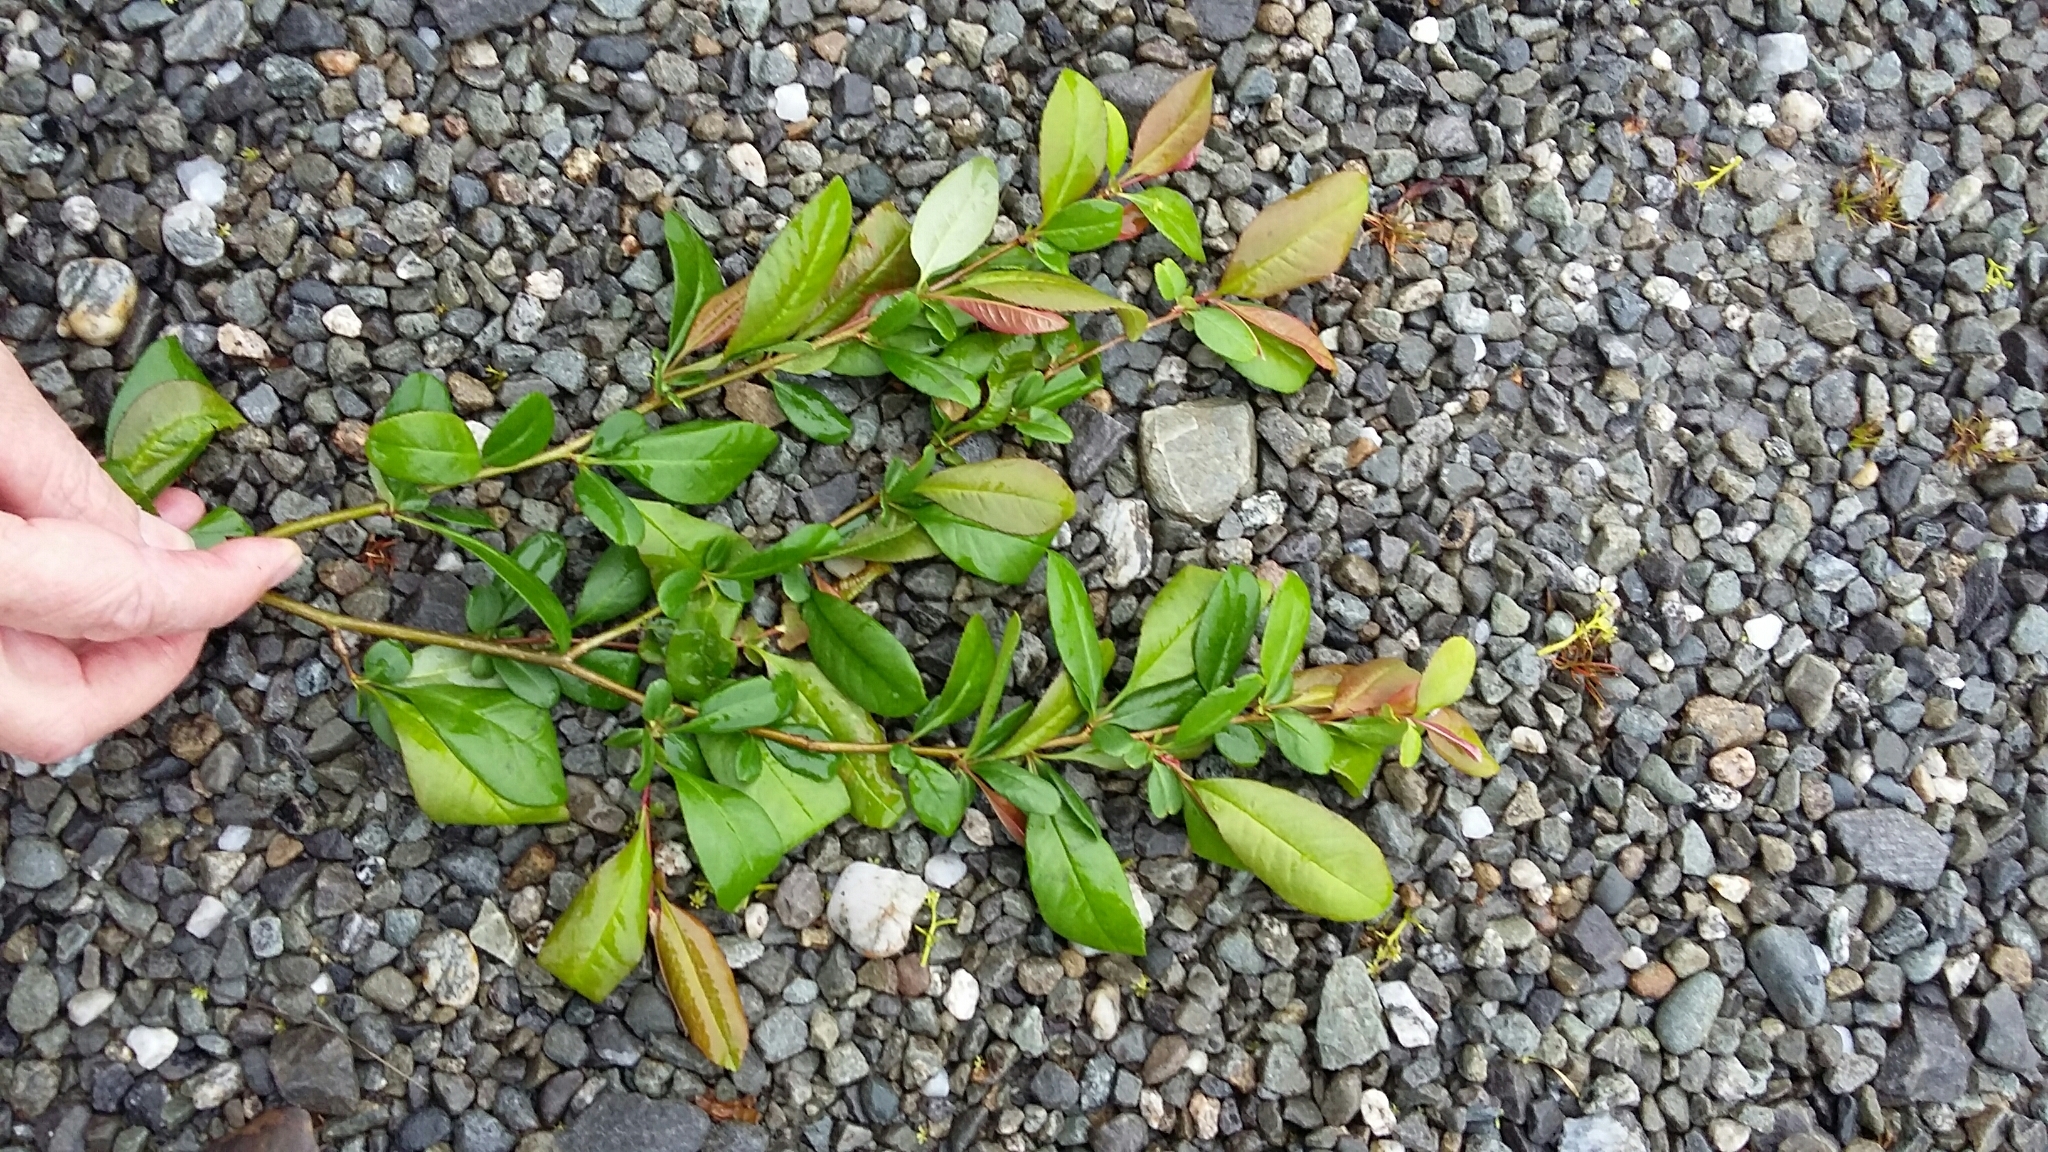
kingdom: Plantae
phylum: Tracheophyta
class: Magnoliopsida
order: Rosales
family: Rosaceae
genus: Chaenomeles
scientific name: Chaenomeles speciosa
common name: Japanese quince
